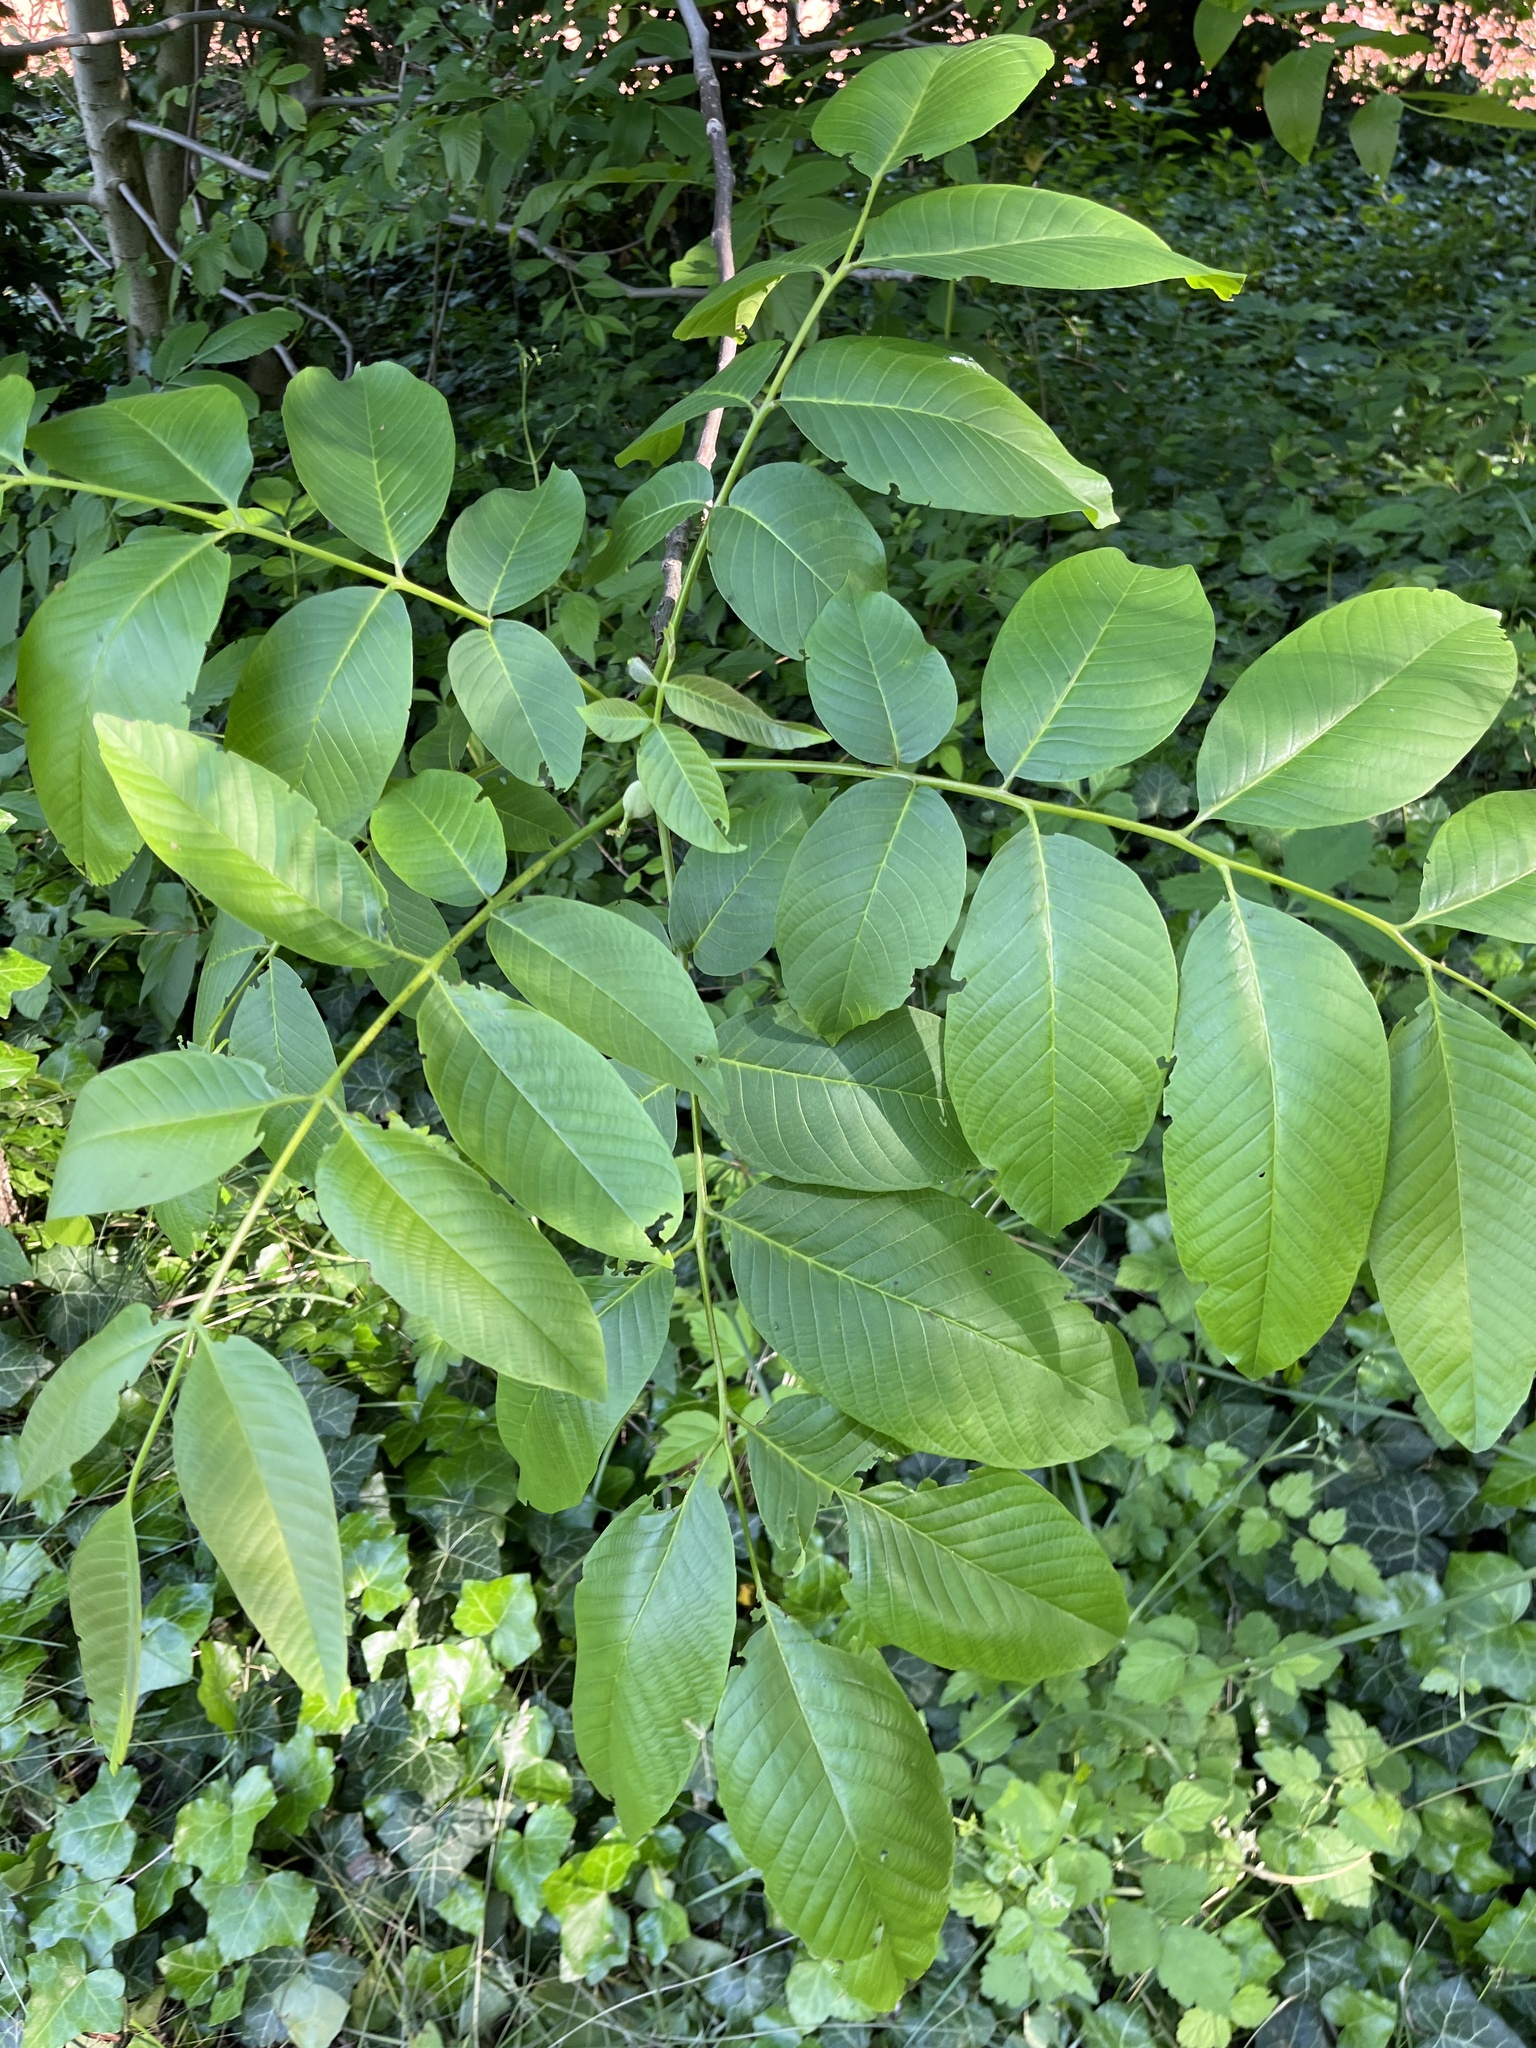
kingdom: Plantae
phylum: Tracheophyta
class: Magnoliopsida
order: Fagales
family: Juglandaceae
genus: Juglans
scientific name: Juglans regia
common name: Walnut
